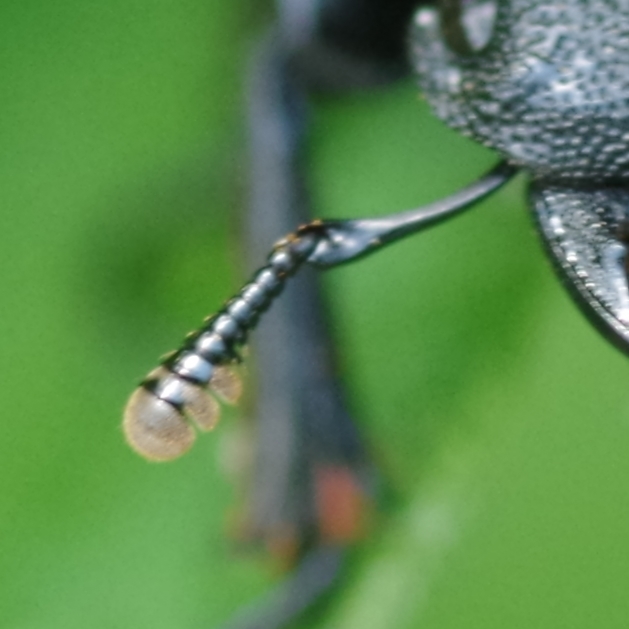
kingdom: Animalia
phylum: Arthropoda
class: Insecta
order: Coleoptera
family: Lucanidae
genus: Dorcus
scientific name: Dorcus parallelipipedus
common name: Lesser stag beetle
